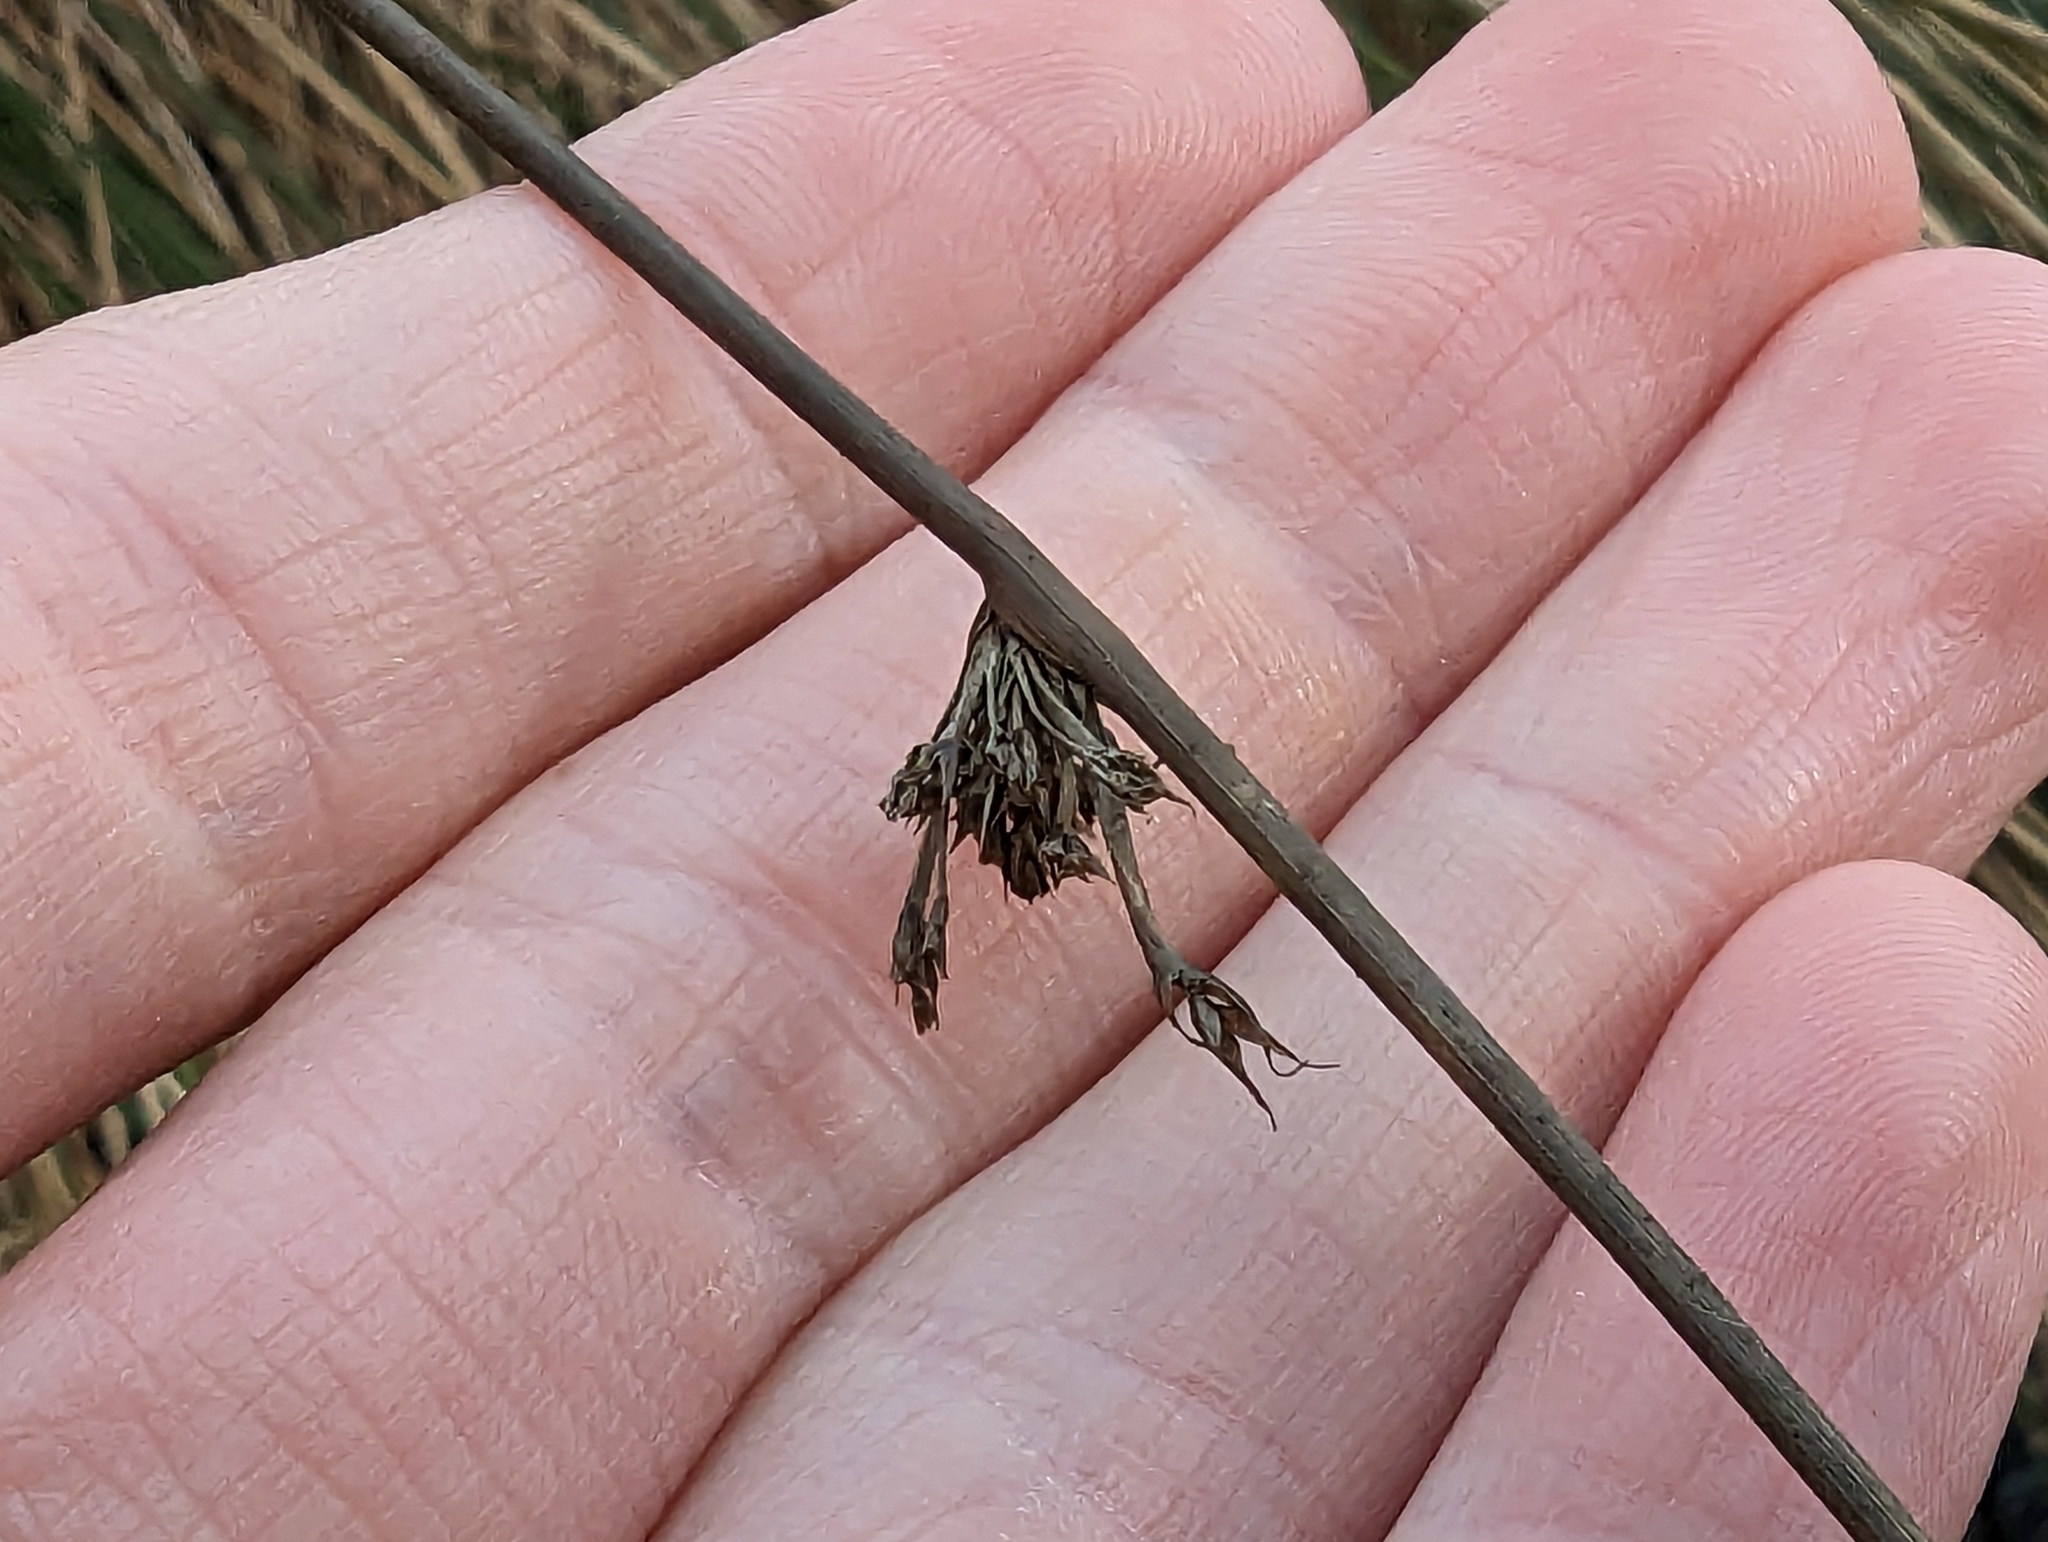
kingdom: Plantae
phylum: Tracheophyta
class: Liliopsida
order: Poales
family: Juncaceae
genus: Juncus
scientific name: Juncus effusus
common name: Soft rush
